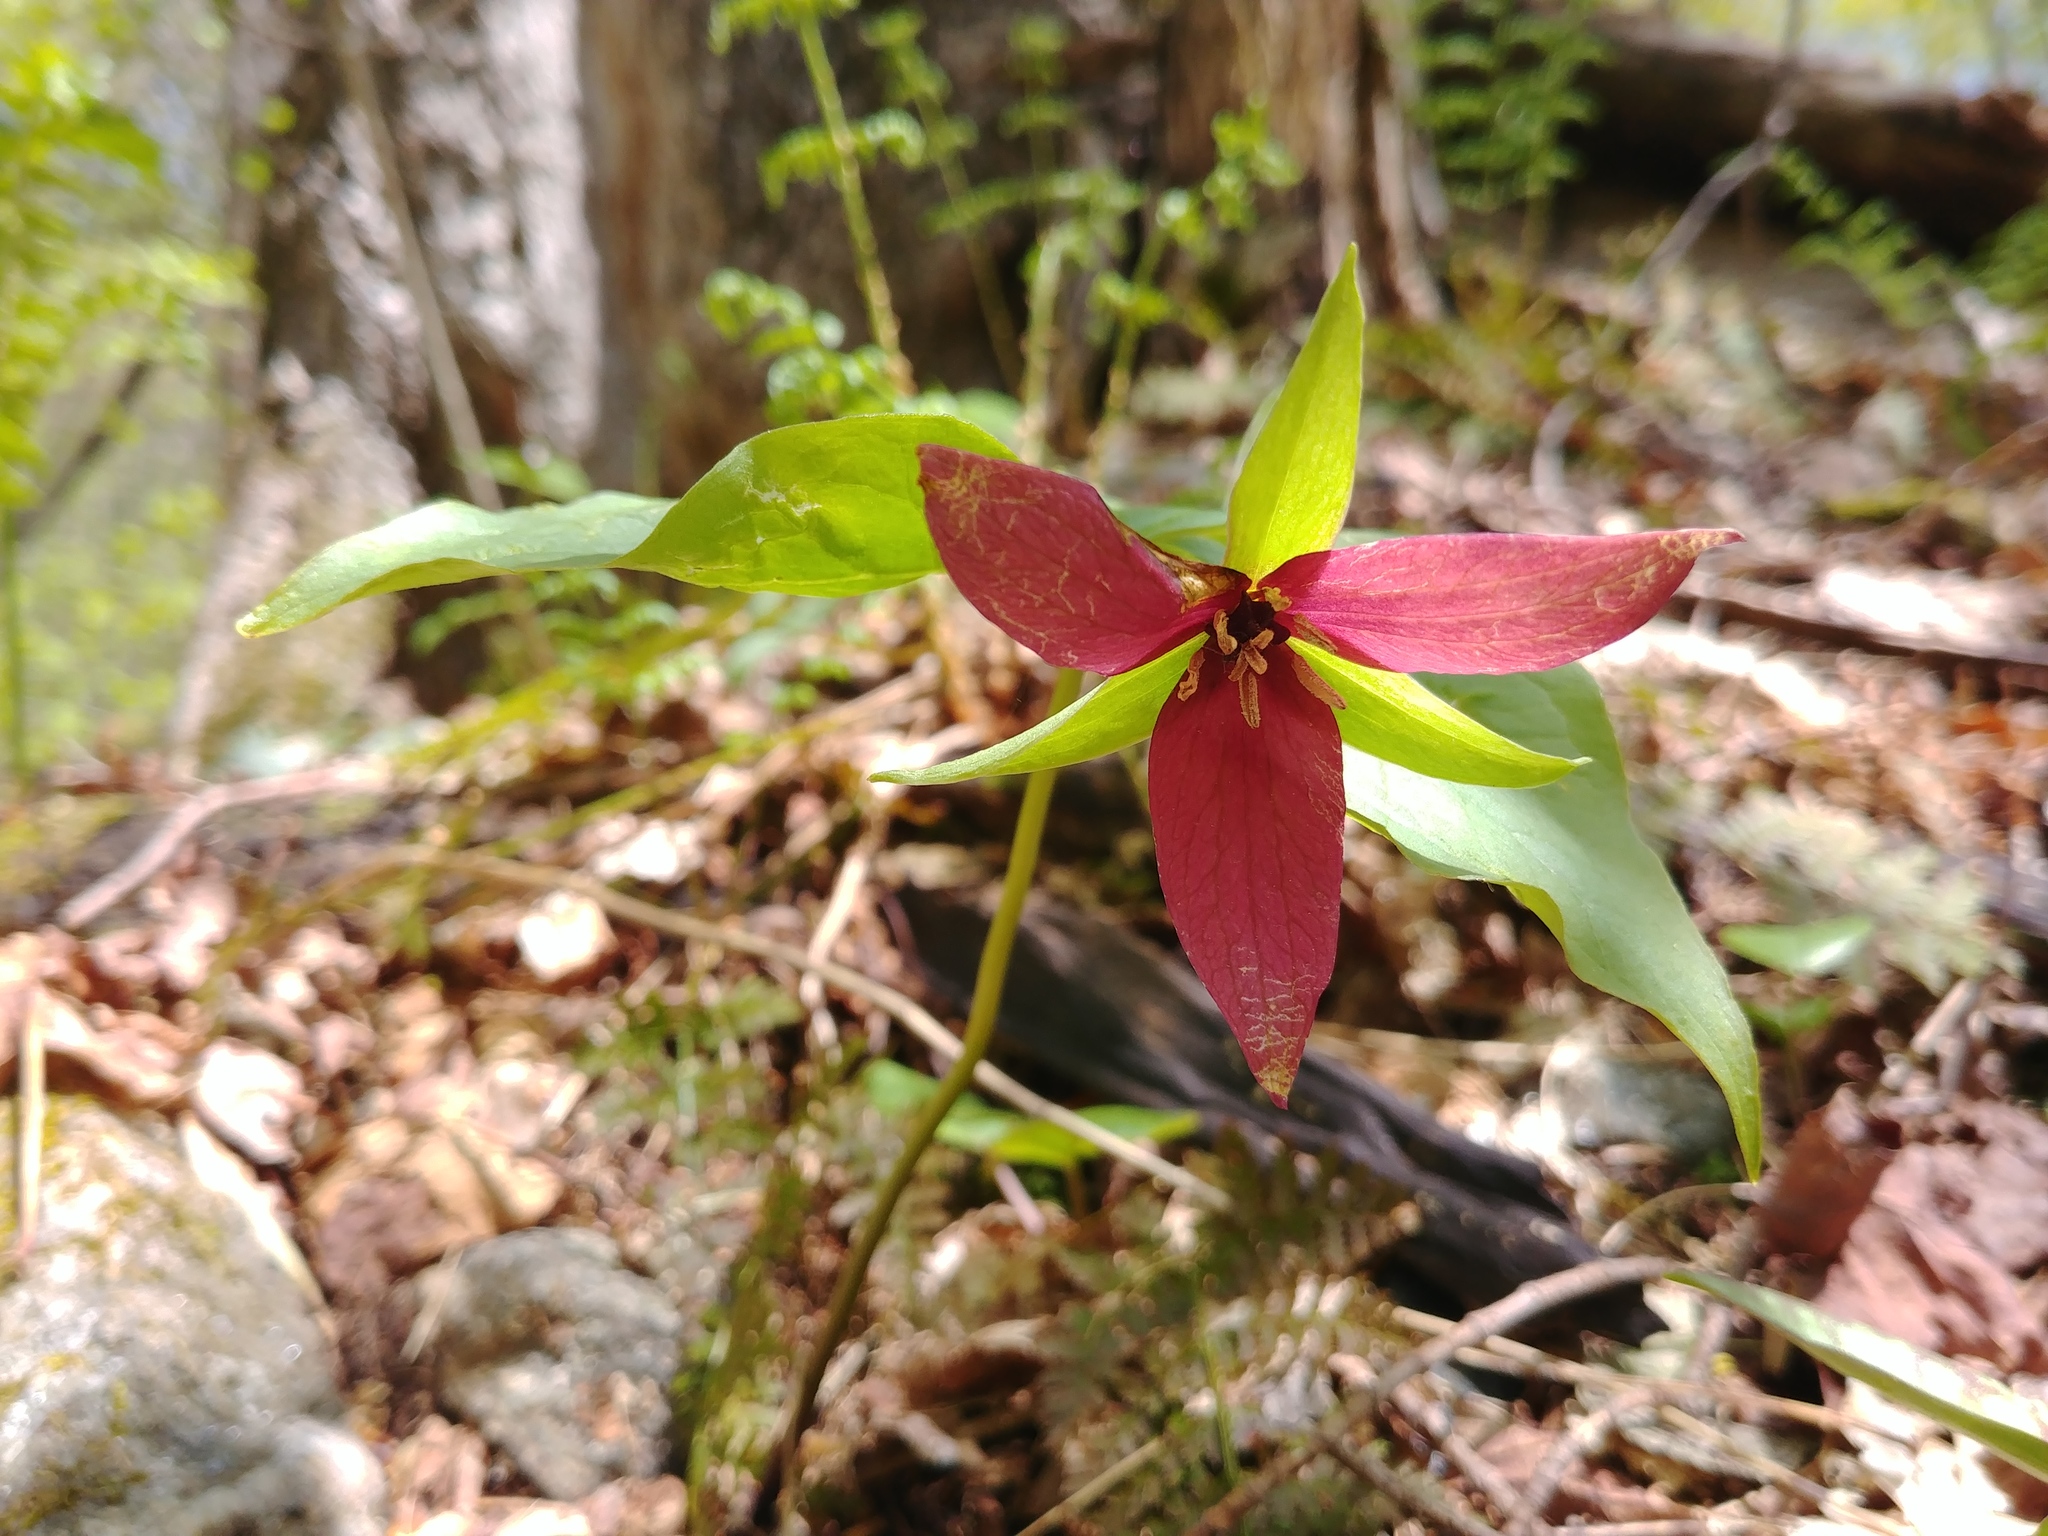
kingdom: Plantae
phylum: Tracheophyta
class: Liliopsida
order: Liliales
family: Melanthiaceae
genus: Trillium
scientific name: Trillium erectum
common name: Purple trillium
